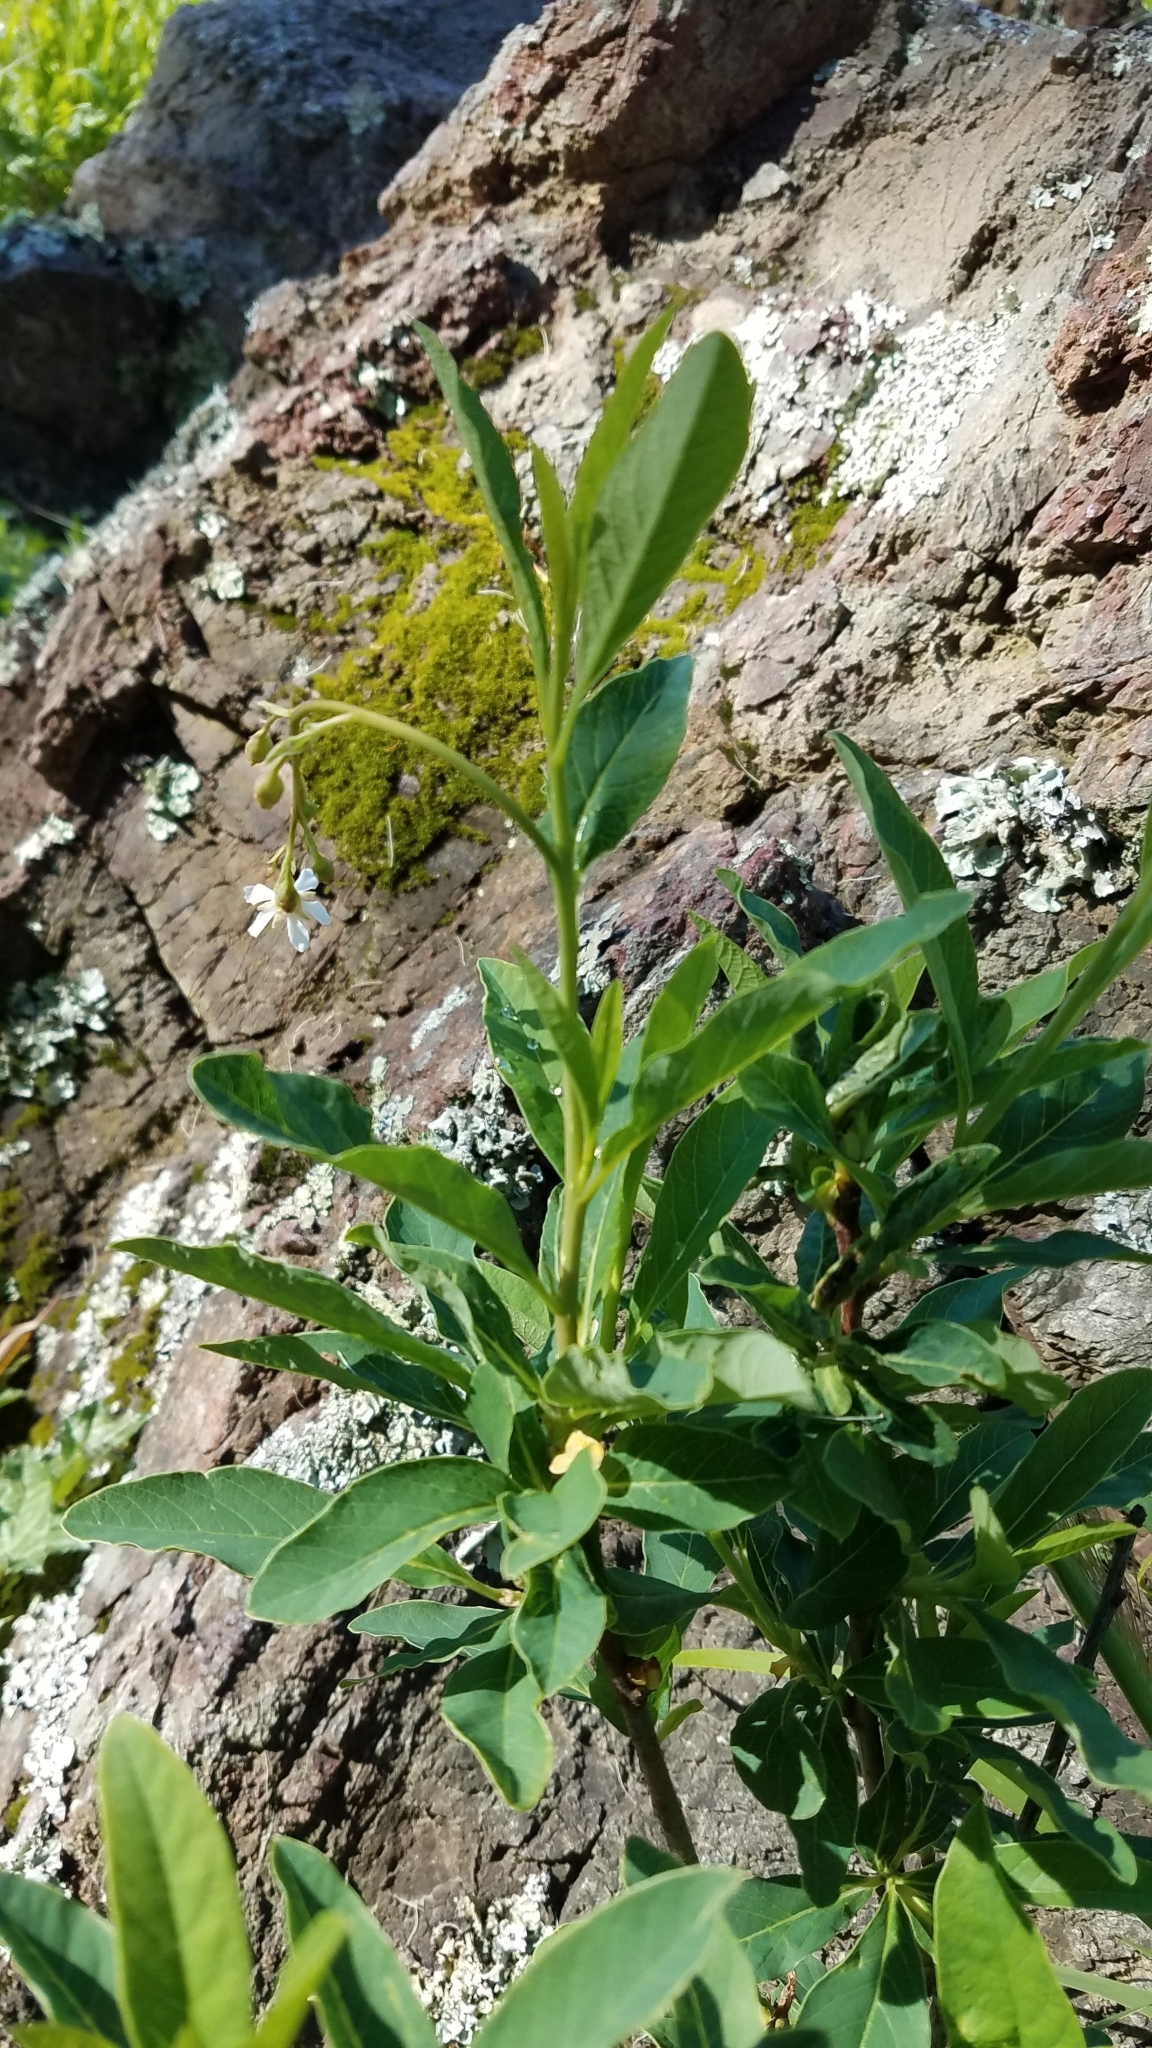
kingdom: Plantae
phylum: Tracheophyta
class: Magnoliopsida
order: Rosales
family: Rosaceae
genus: Oemleria
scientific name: Oemleria cerasiformis
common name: Osoberry
